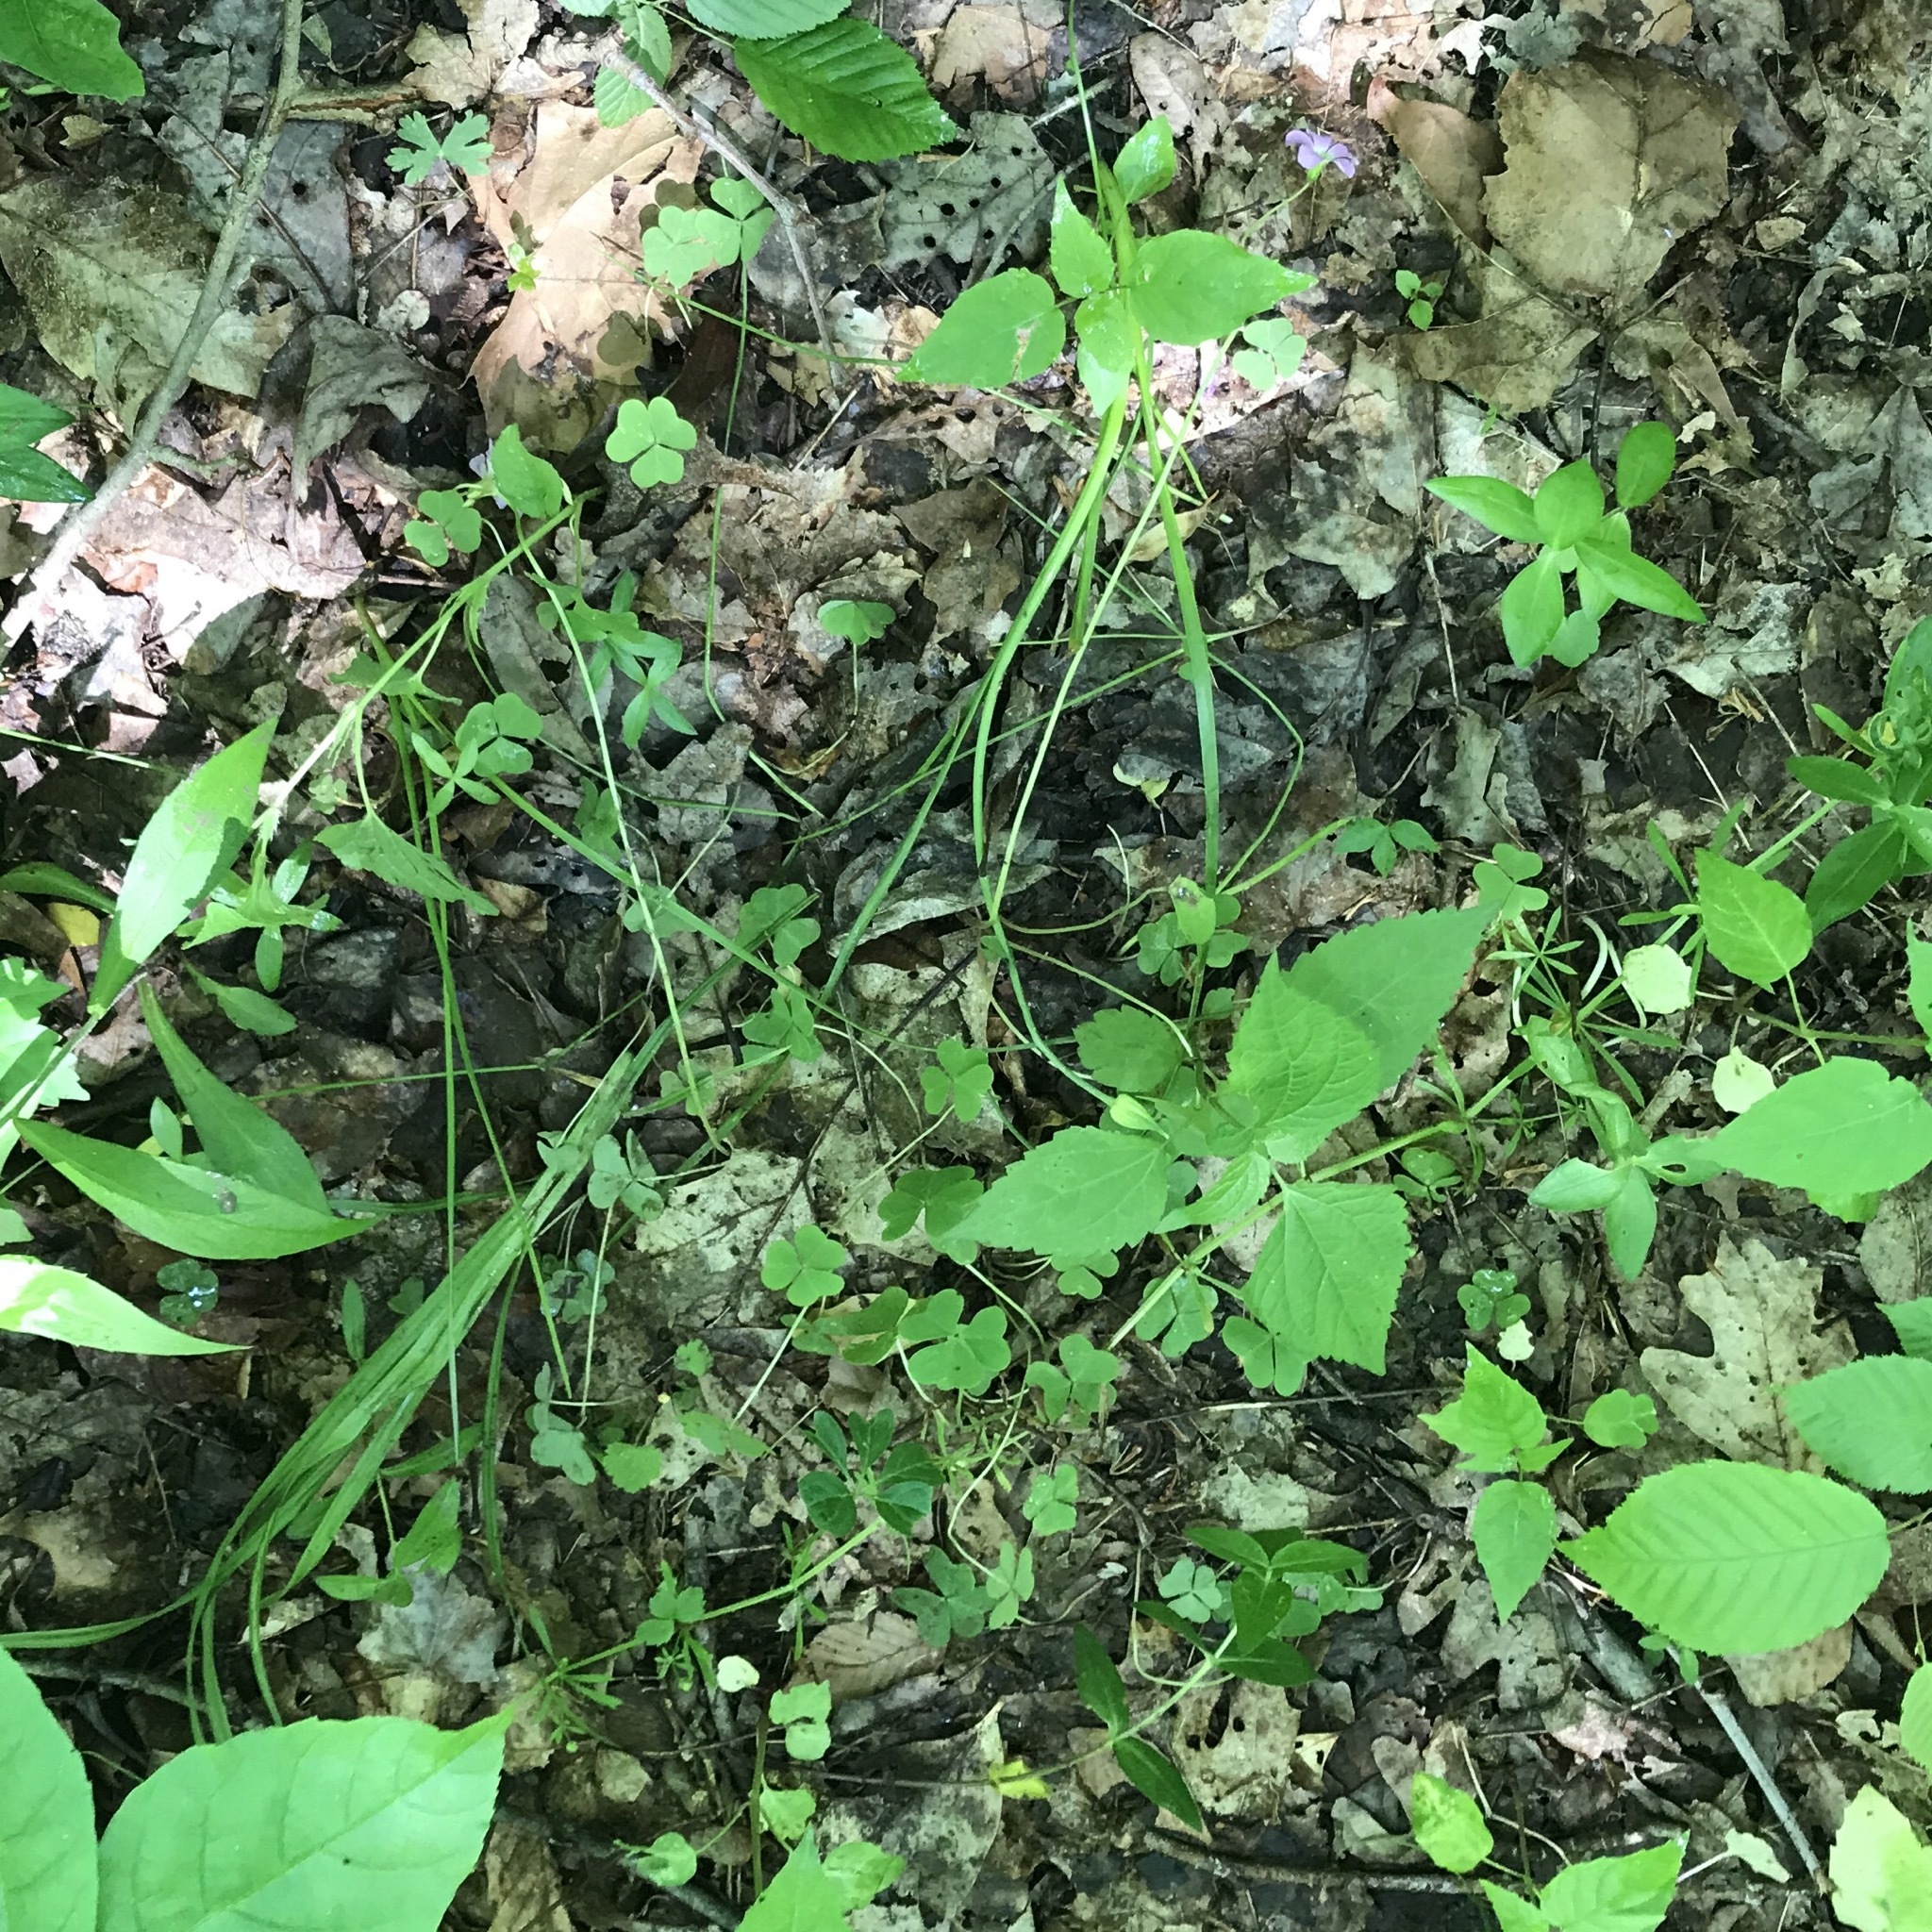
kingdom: Plantae
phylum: Tracheophyta
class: Magnoliopsida
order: Oxalidales
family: Oxalidaceae
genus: Oxalis
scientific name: Oxalis violacea
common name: Violet wood-sorrel
